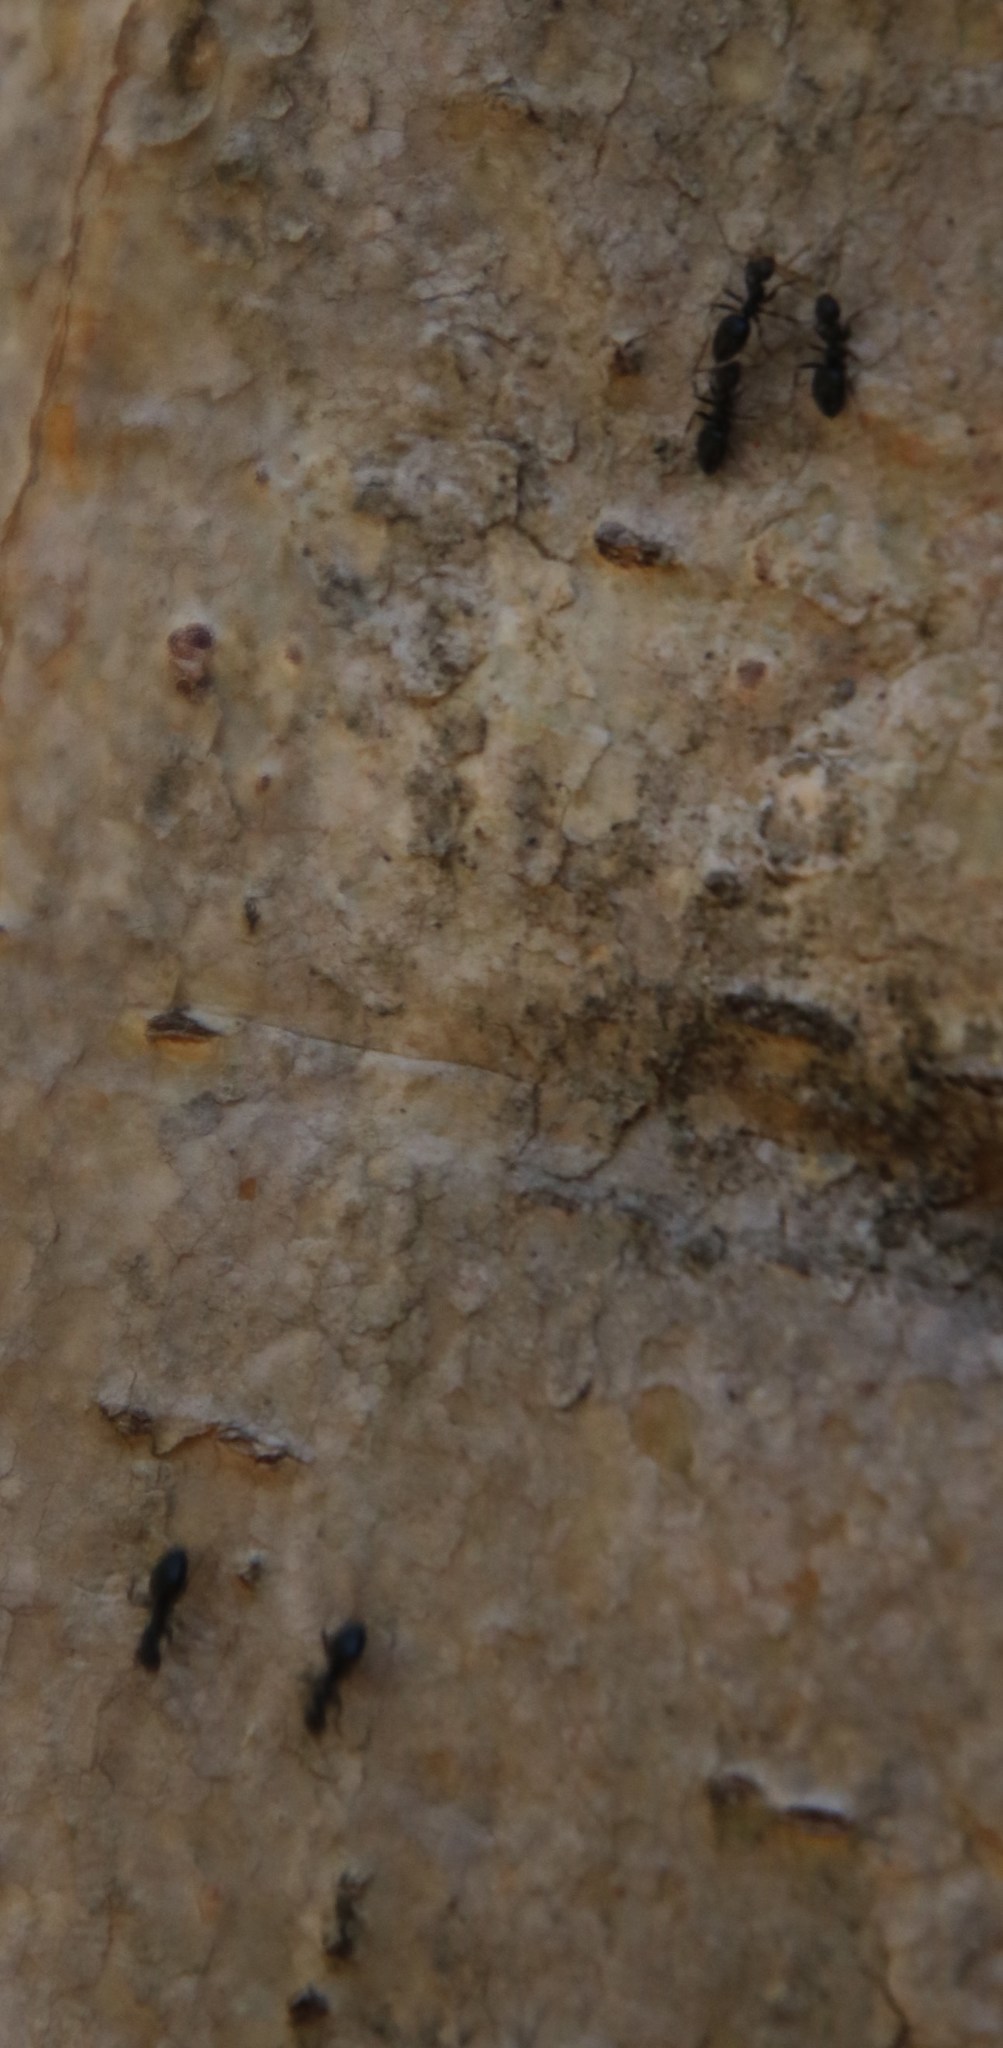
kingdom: Animalia
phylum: Arthropoda
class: Insecta
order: Hymenoptera
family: Formicidae
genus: Tapinoma
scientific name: Tapinoma pallipes
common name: Ant
